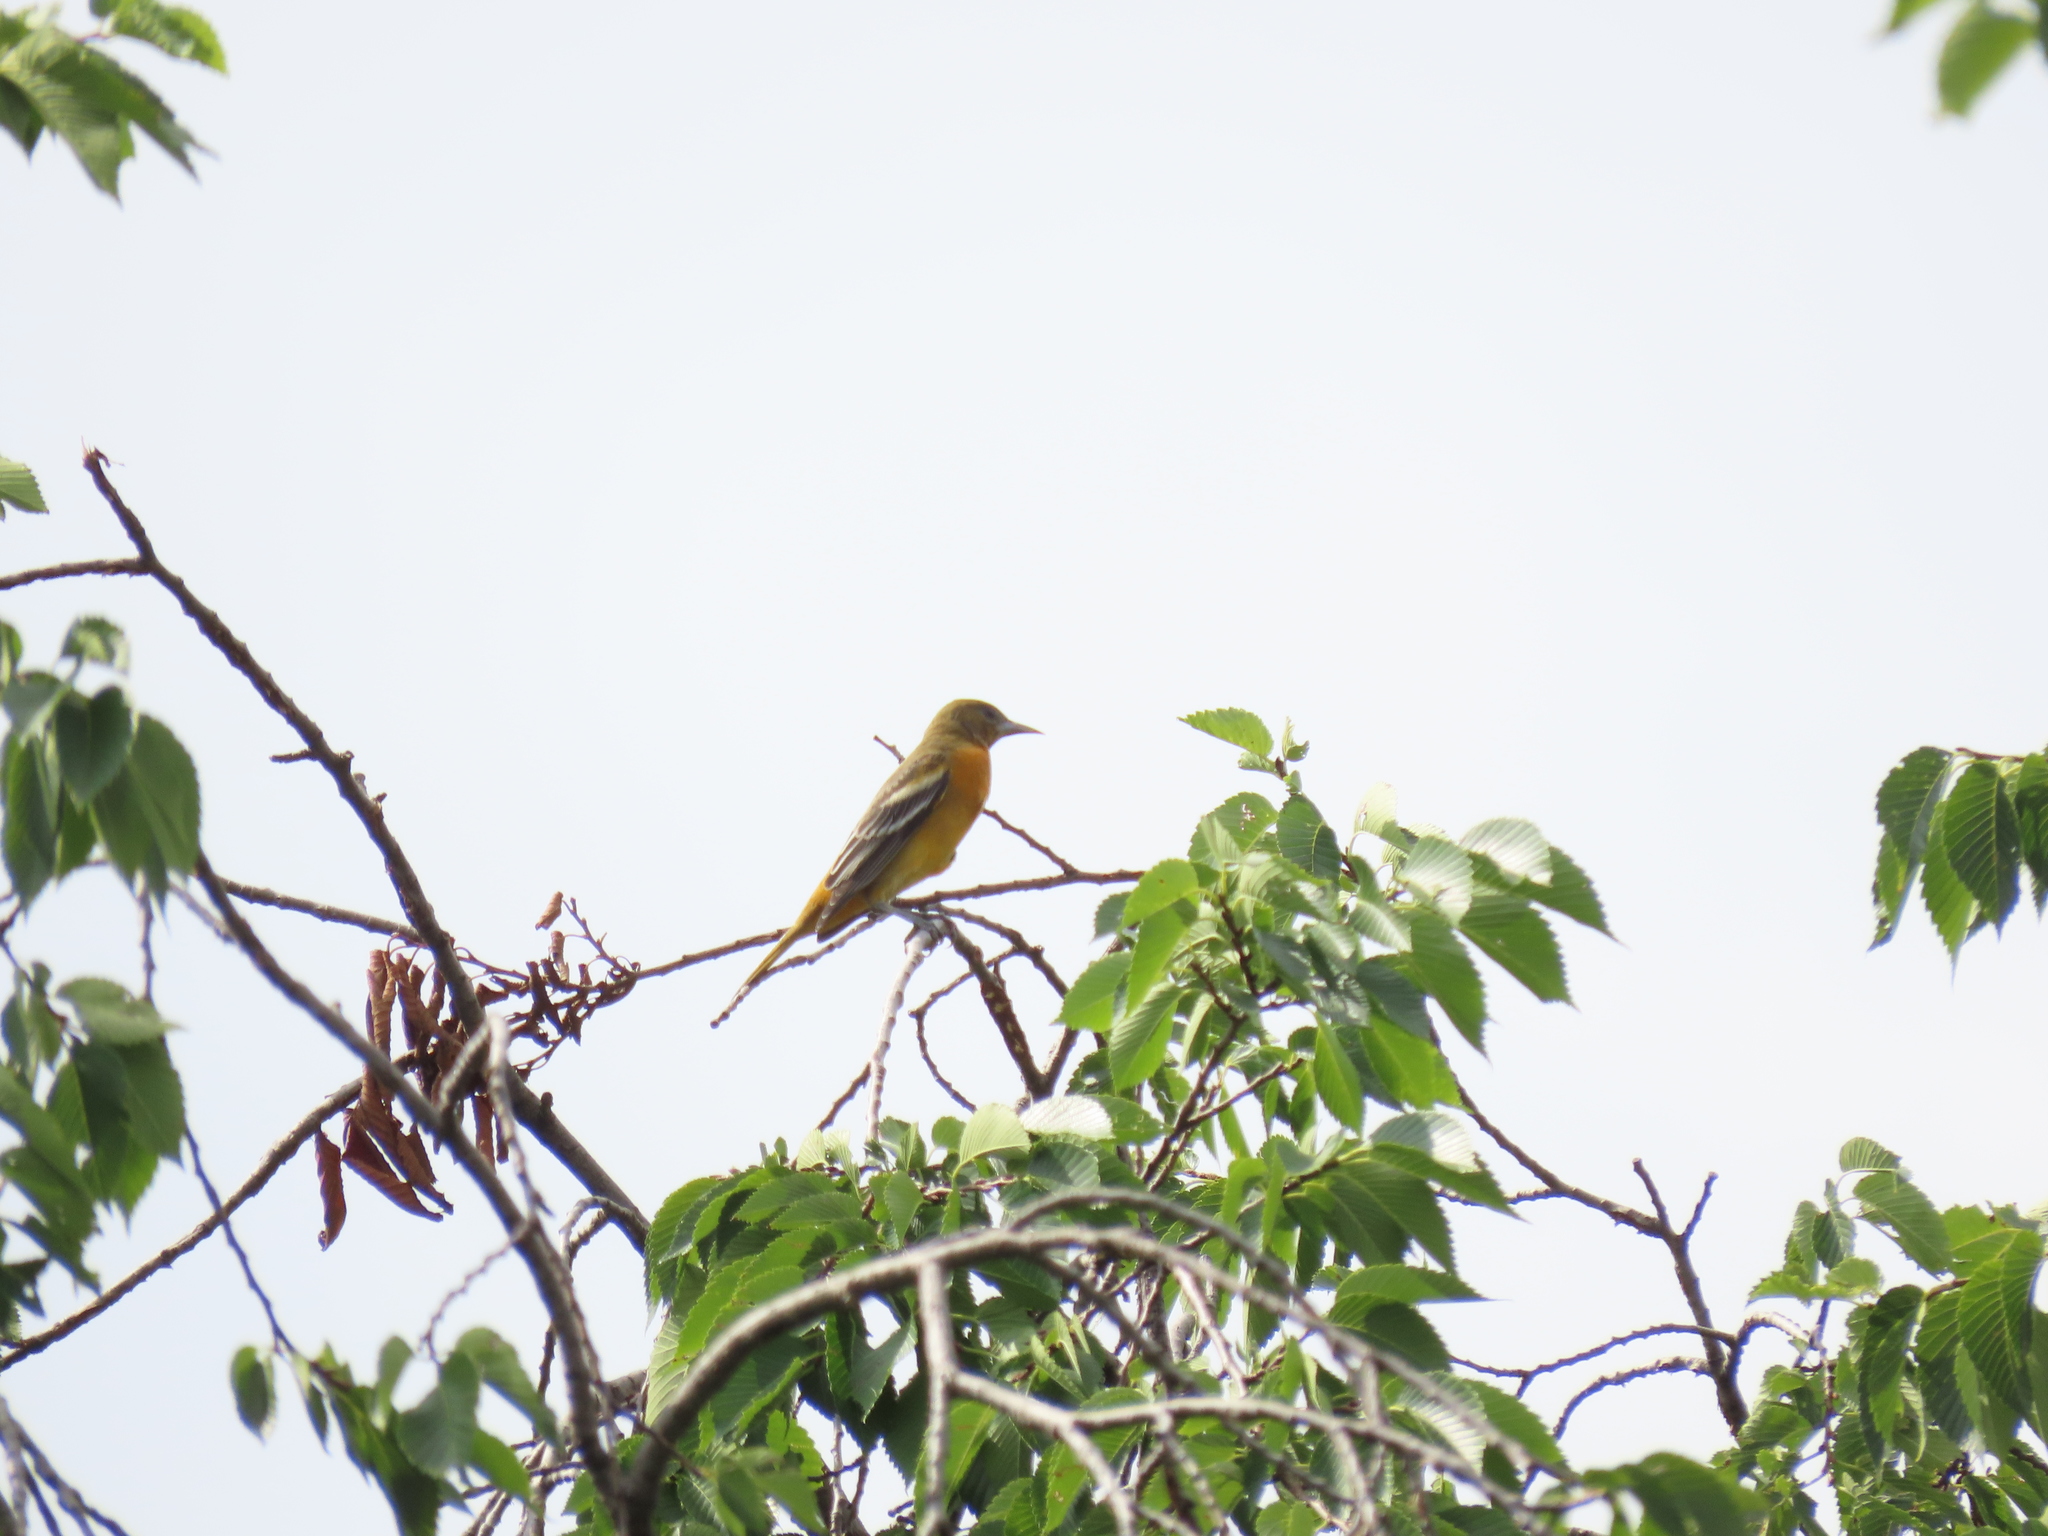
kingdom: Animalia
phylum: Chordata
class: Aves
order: Passeriformes
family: Icteridae
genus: Icterus
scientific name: Icterus galbula
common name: Baltimore oriole
